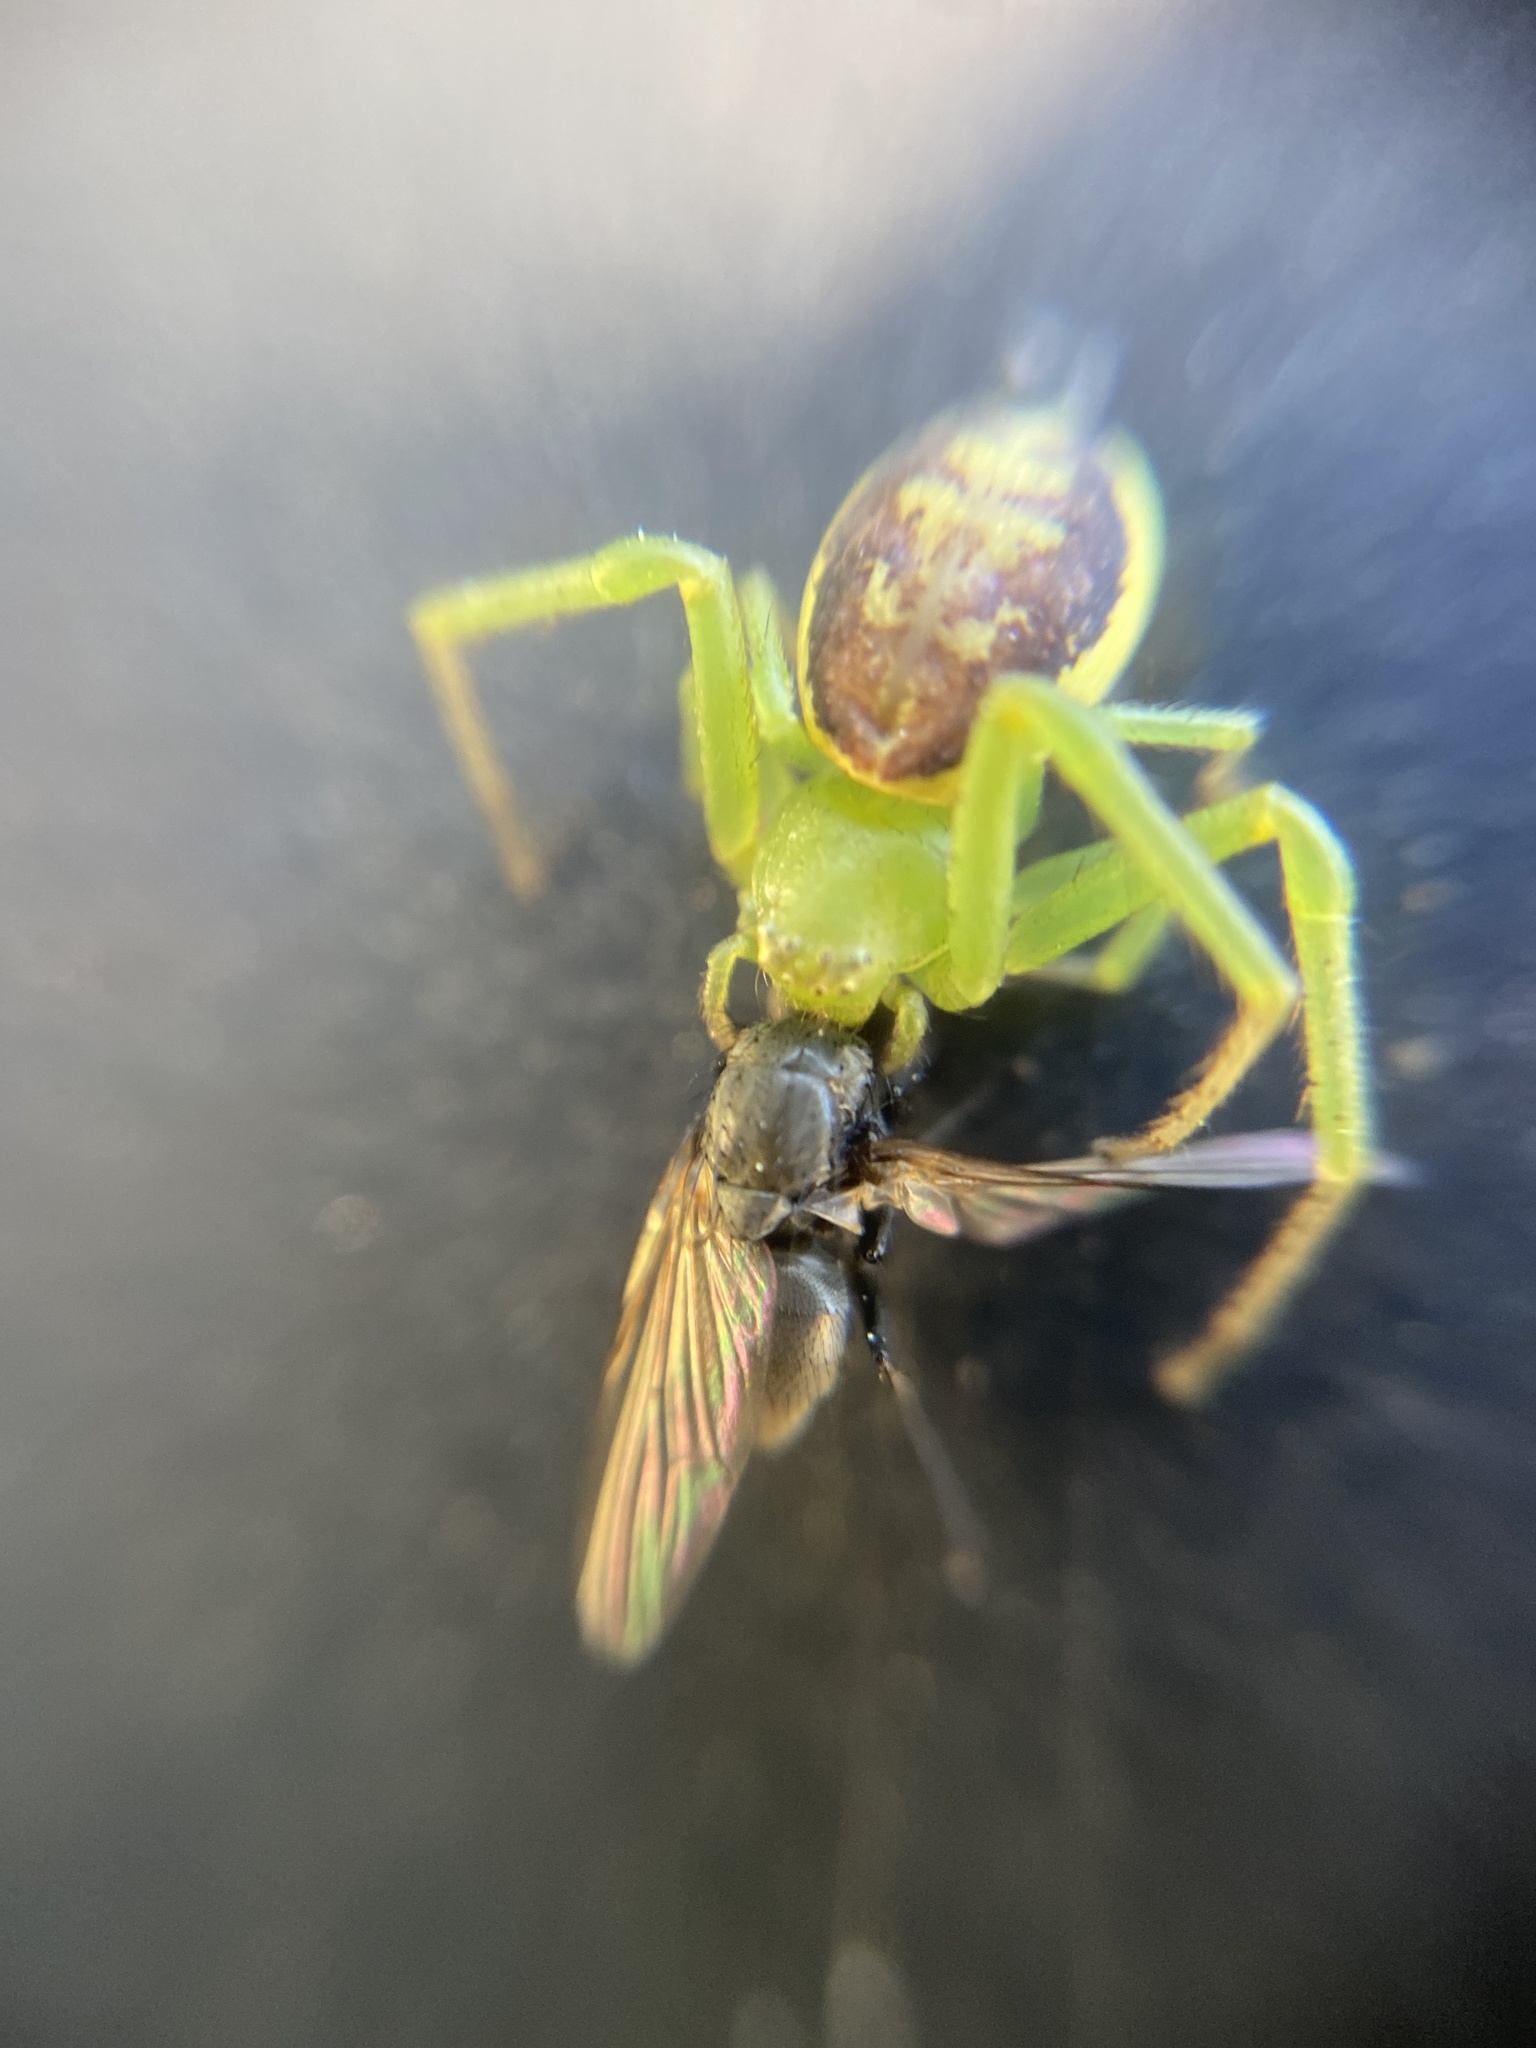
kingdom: Animalia
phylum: Arthropoda
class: Arachnida
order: Araneae
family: Thomisidae
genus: Diaea
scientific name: Diaea dorsata
